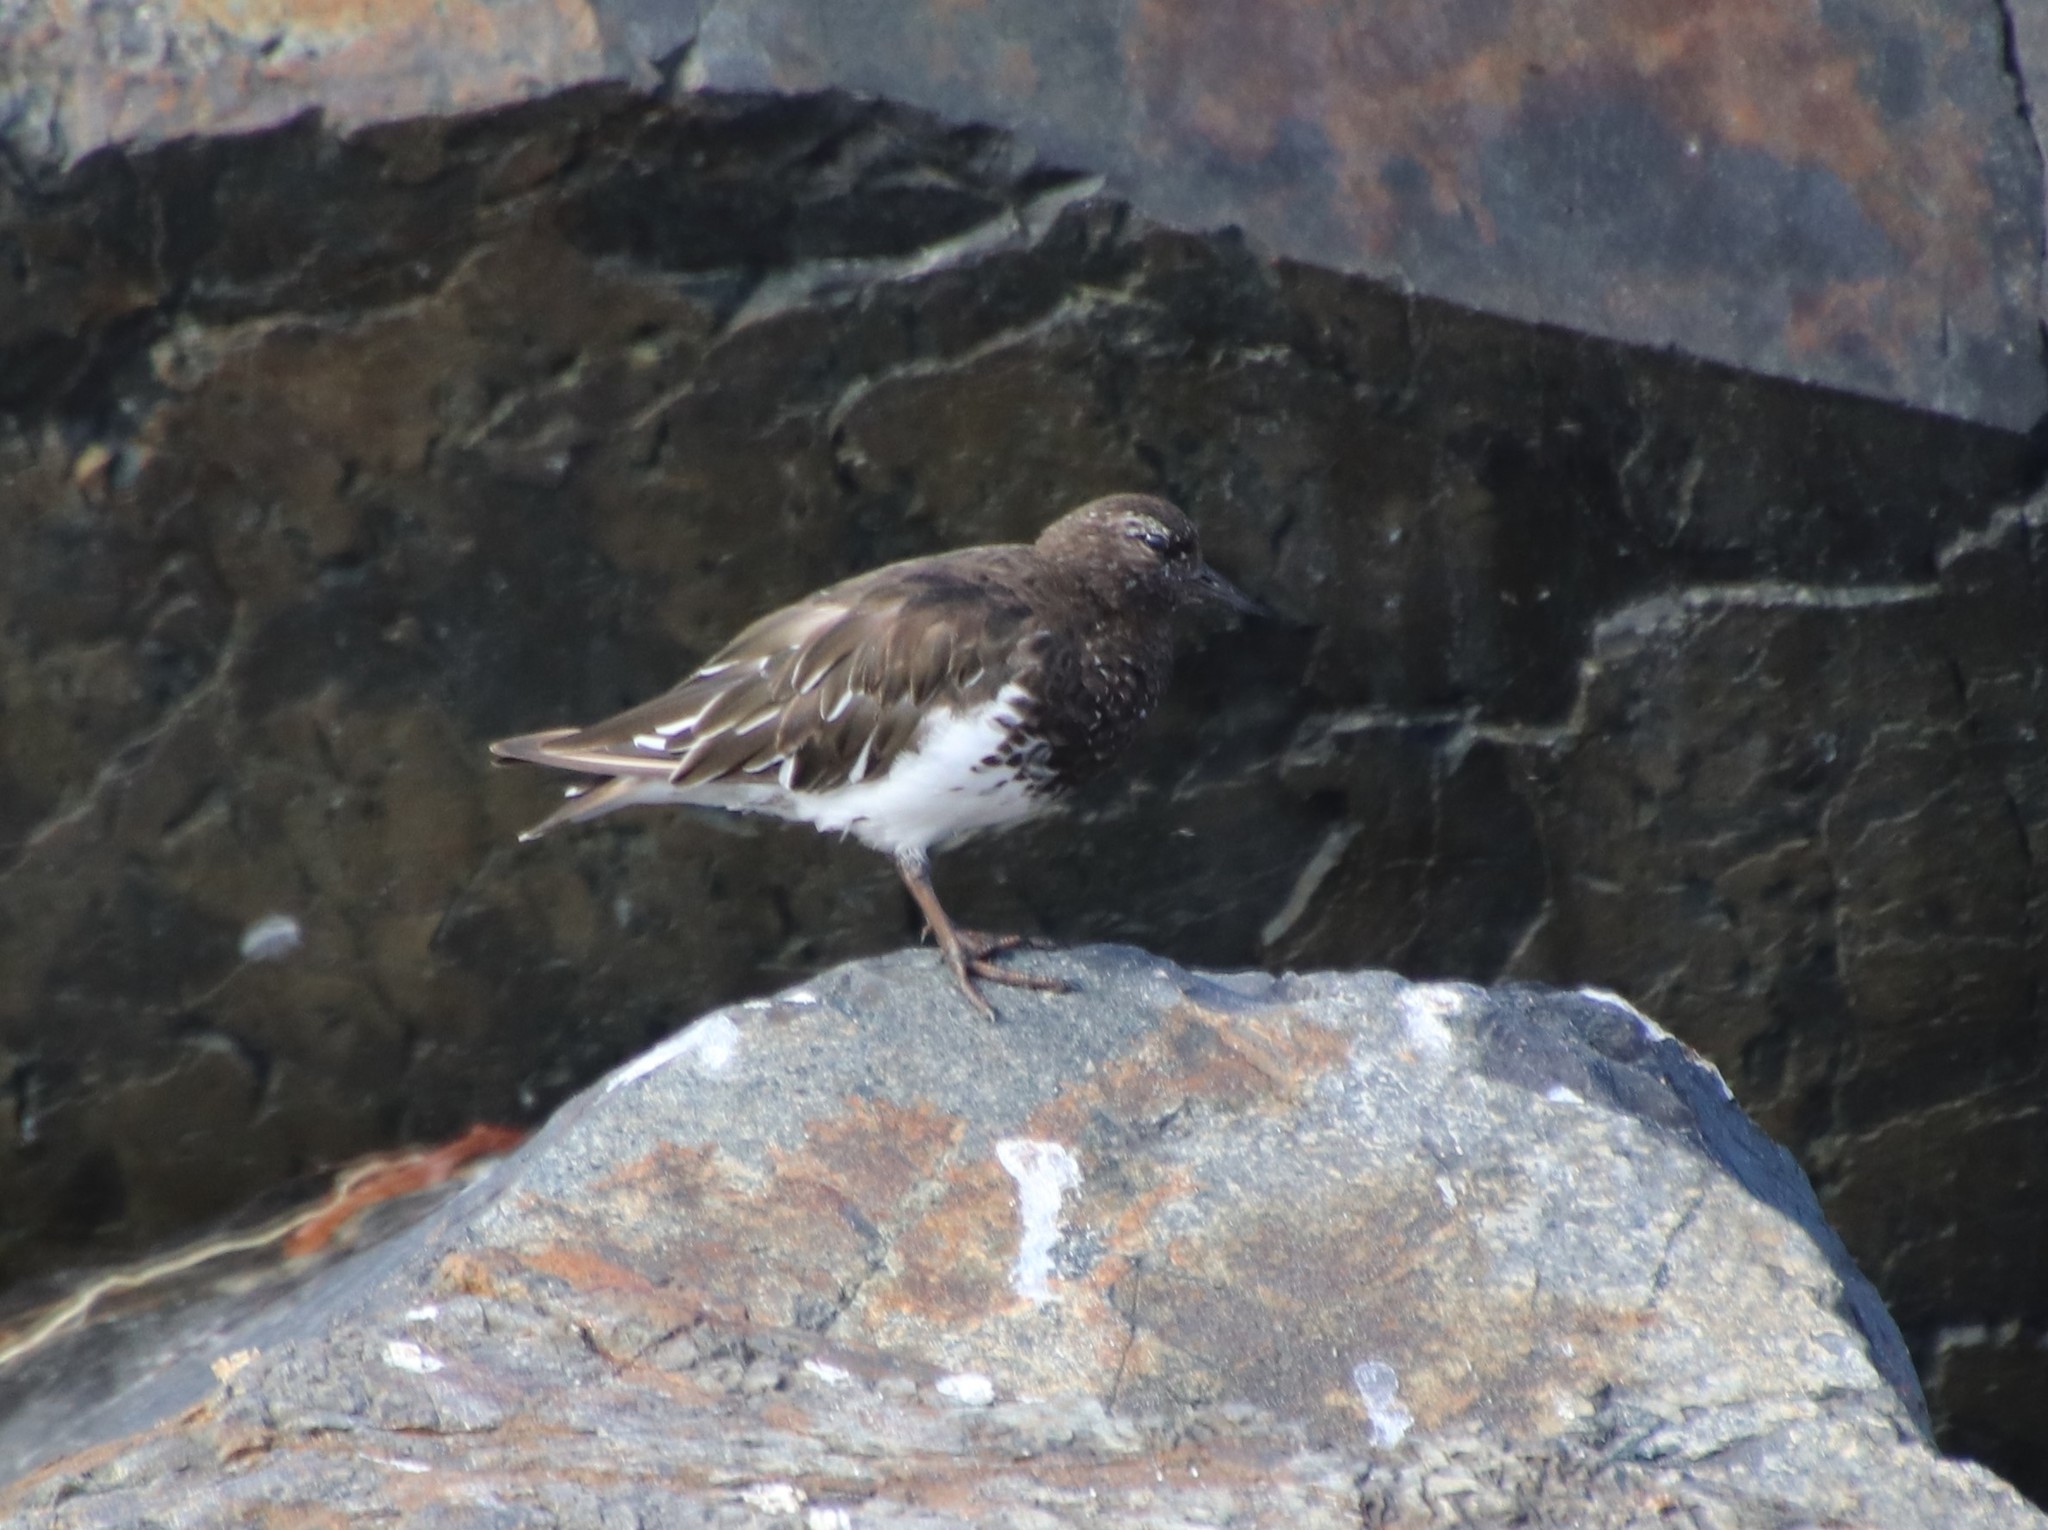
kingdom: Animalia
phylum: Chordata
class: Aves
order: Charadriiformes
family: Scolopacidae
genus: Arenaria
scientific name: Arenaria melanocephala
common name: Black turnstone
